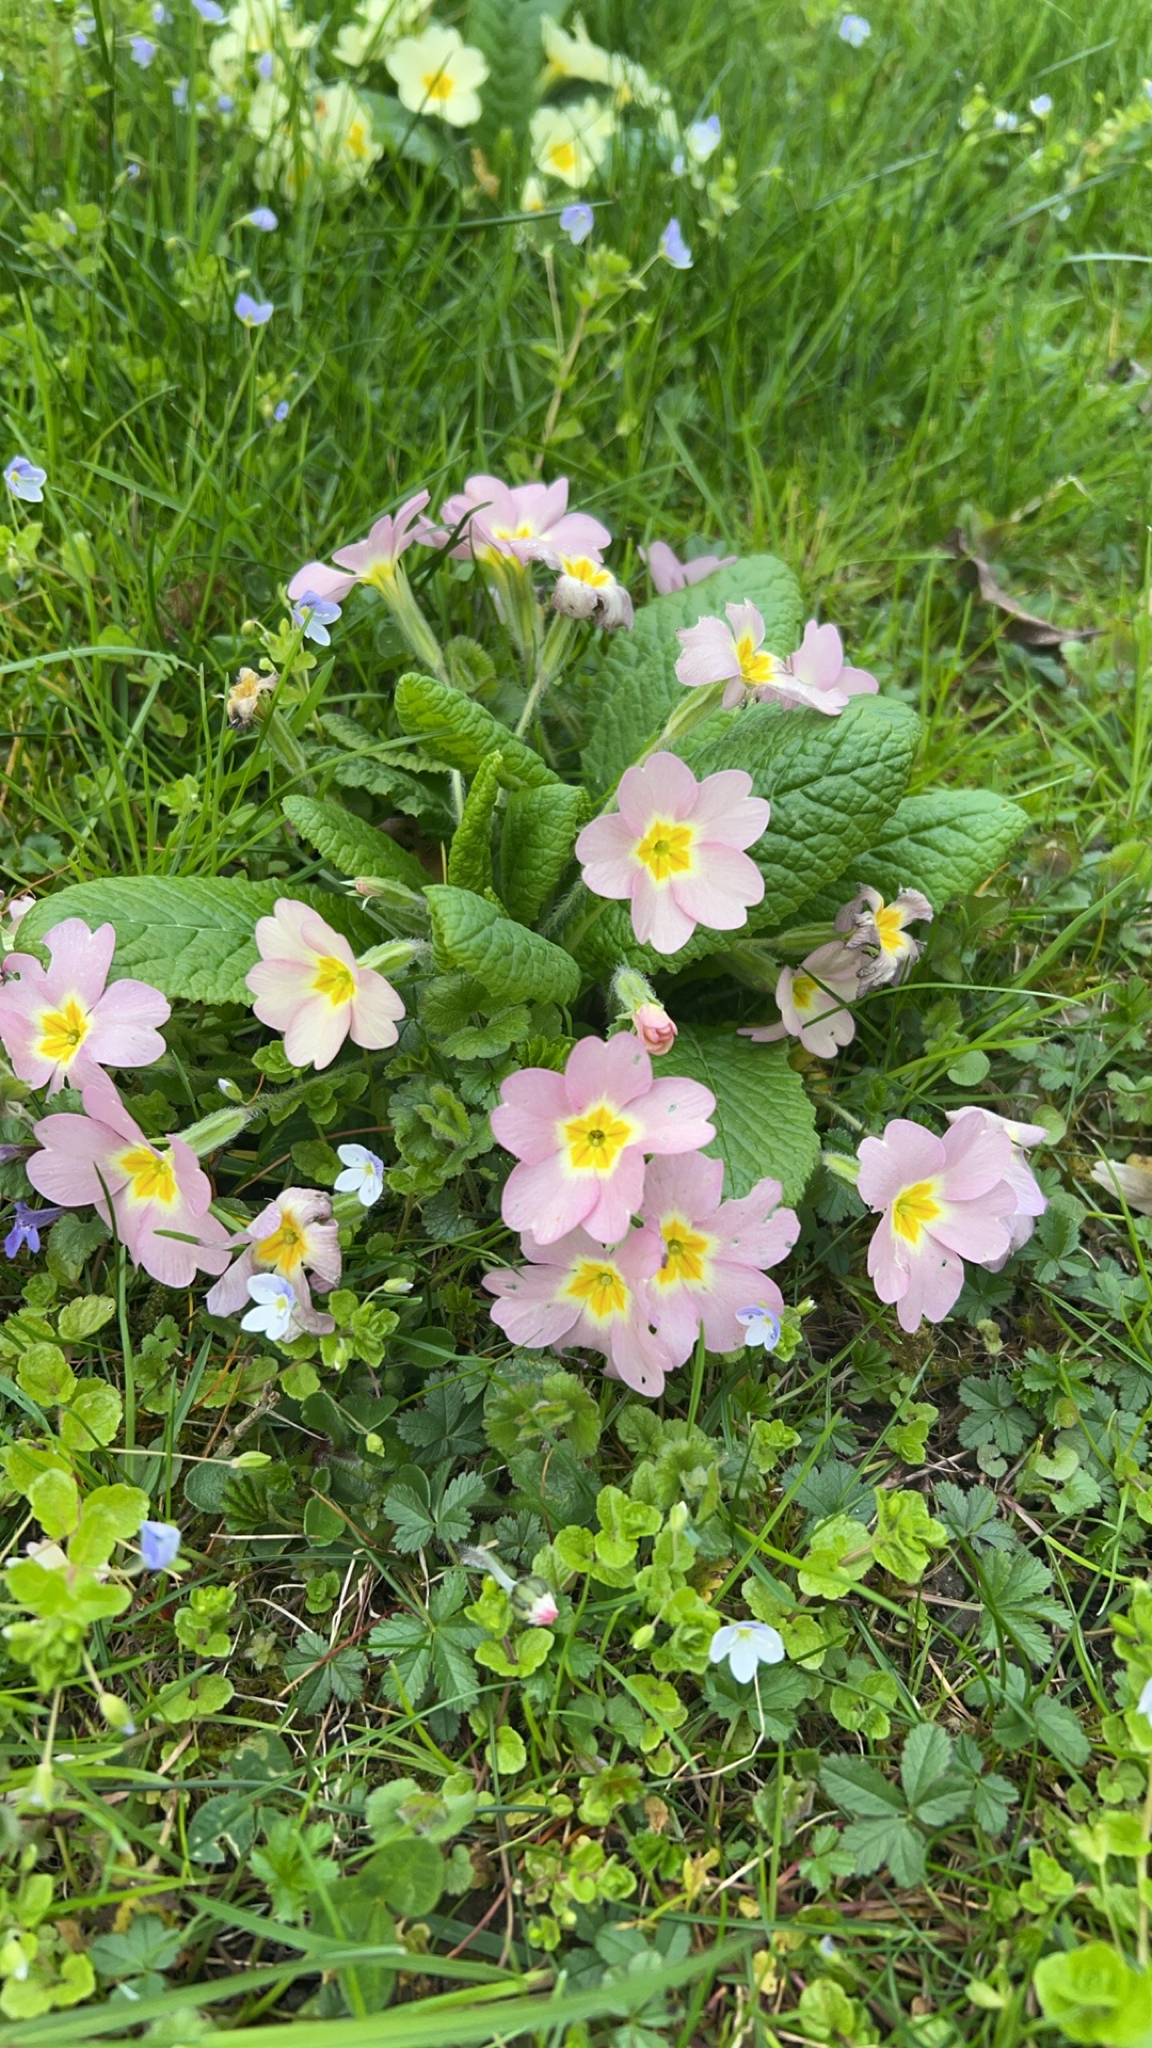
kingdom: Plantae
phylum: Tracheophyta
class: Magnoliopsida
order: Ericales
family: Primulaceae
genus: Primula
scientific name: Primula vulgaris
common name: Primrose
